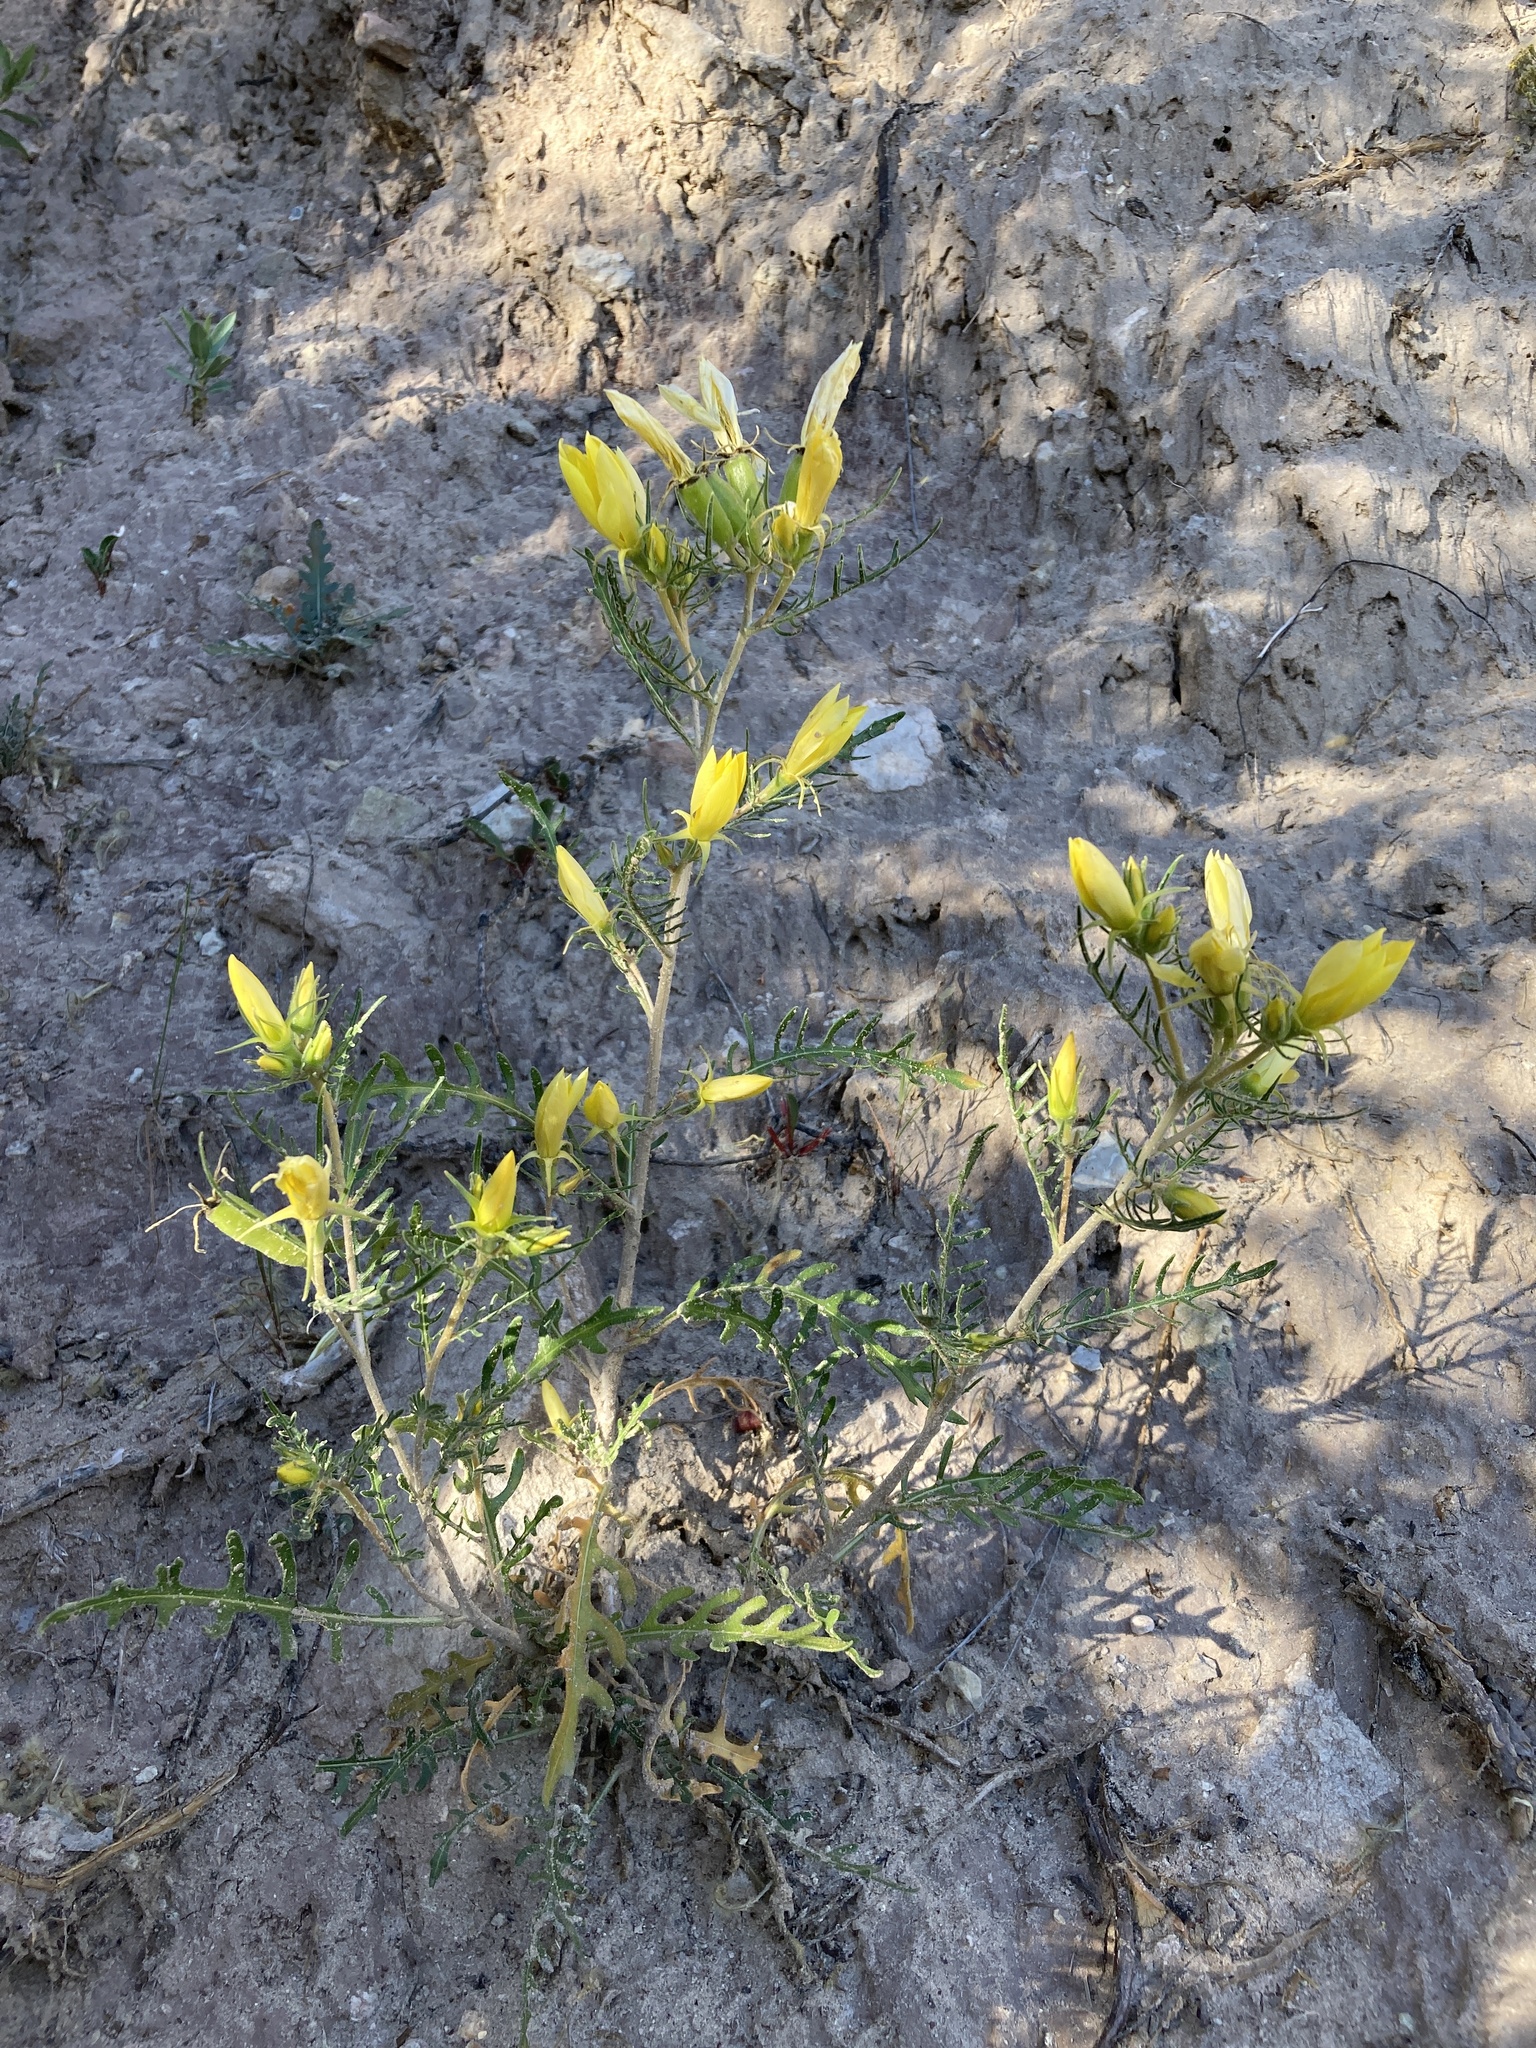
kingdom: Plantae
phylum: Tracheophyta
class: Magnoliopsida
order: Cornales
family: Loasaceae
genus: Mentzelia
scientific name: Mentzelia conspicua
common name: Rio chama blazingstar
